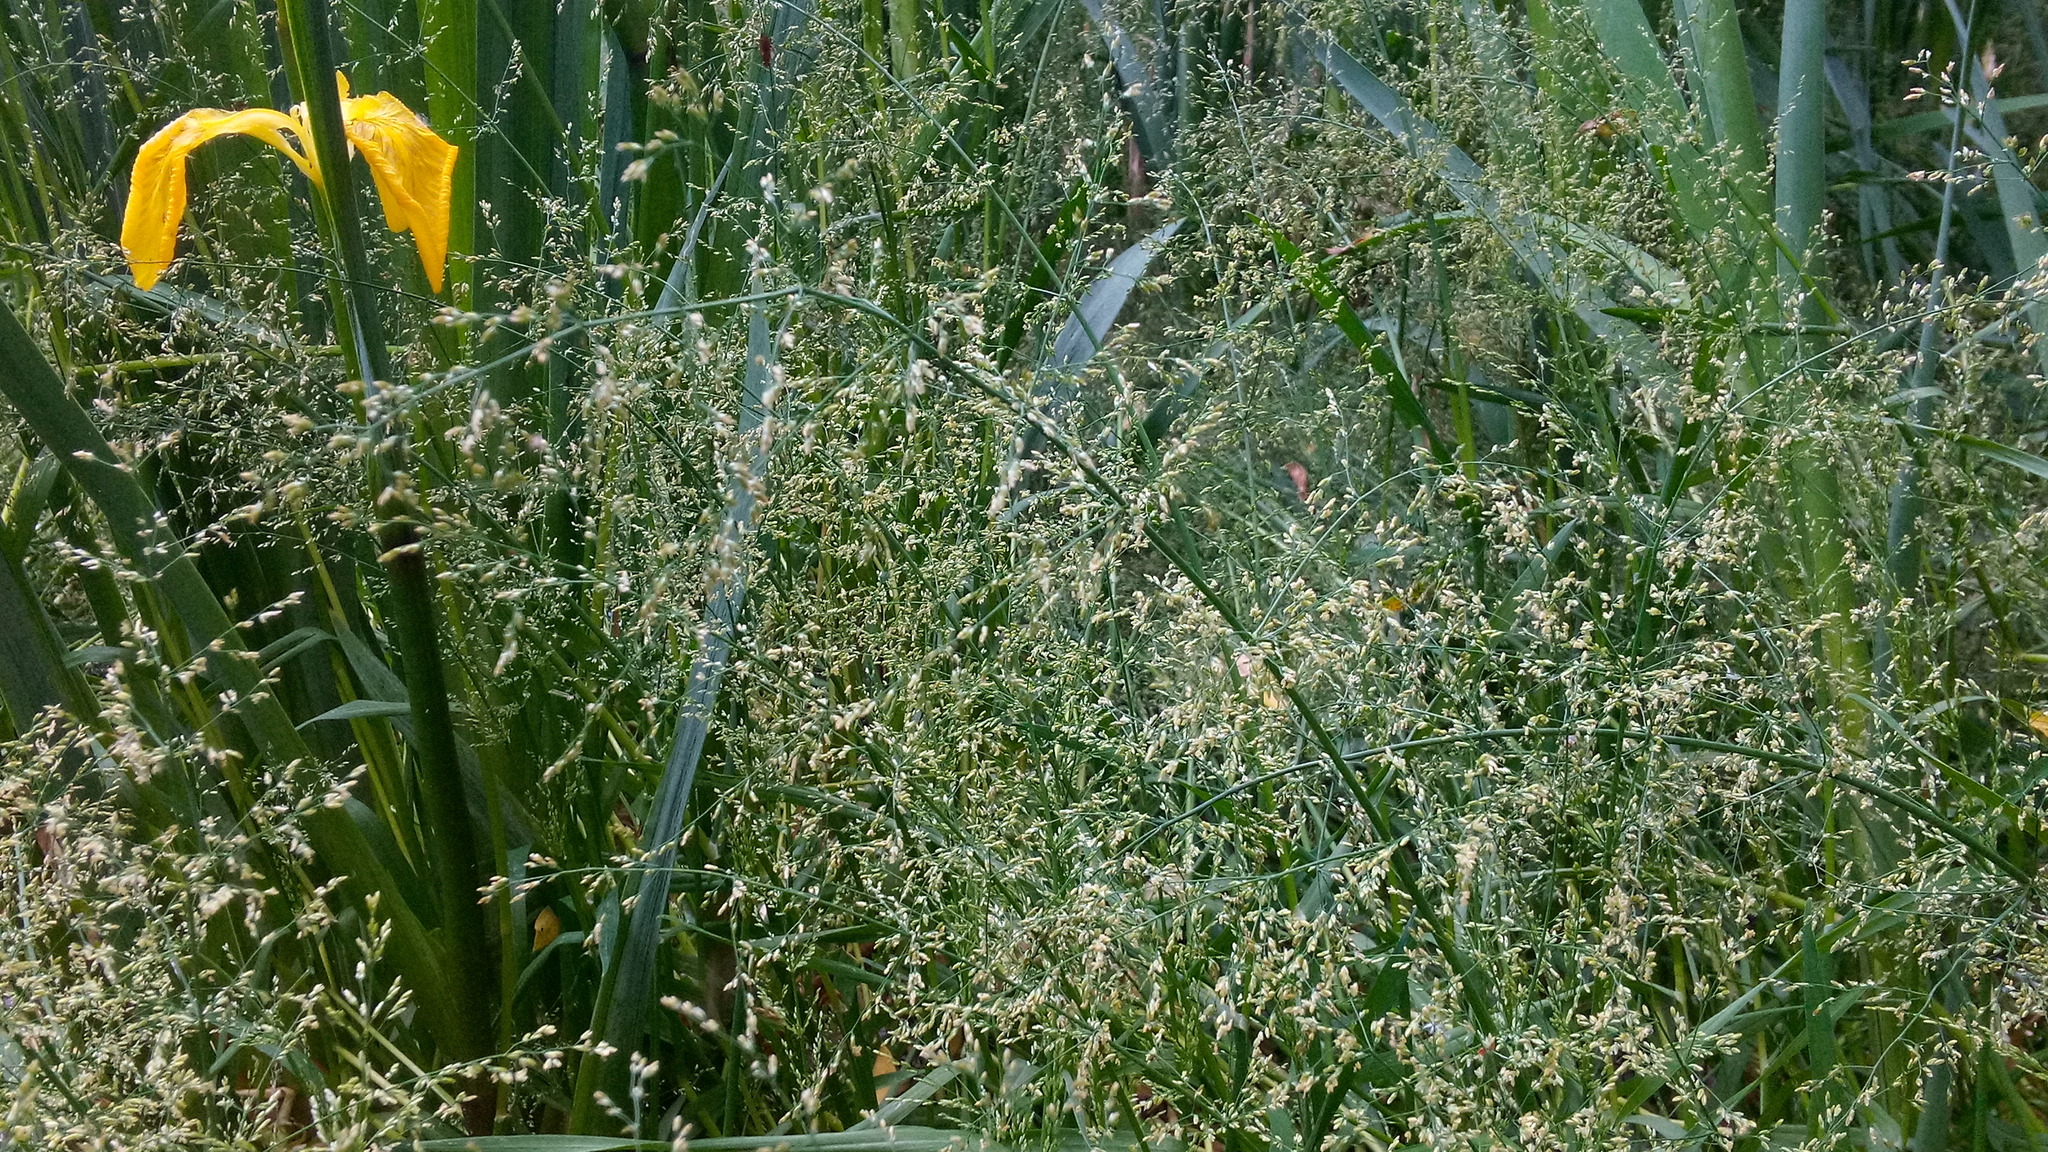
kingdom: Plantae
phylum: Tracheophyta
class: Liliopsida
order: Asparagales
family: Iridaceae
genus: Iris
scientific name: Iris pseudacorus
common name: Yellow flag
